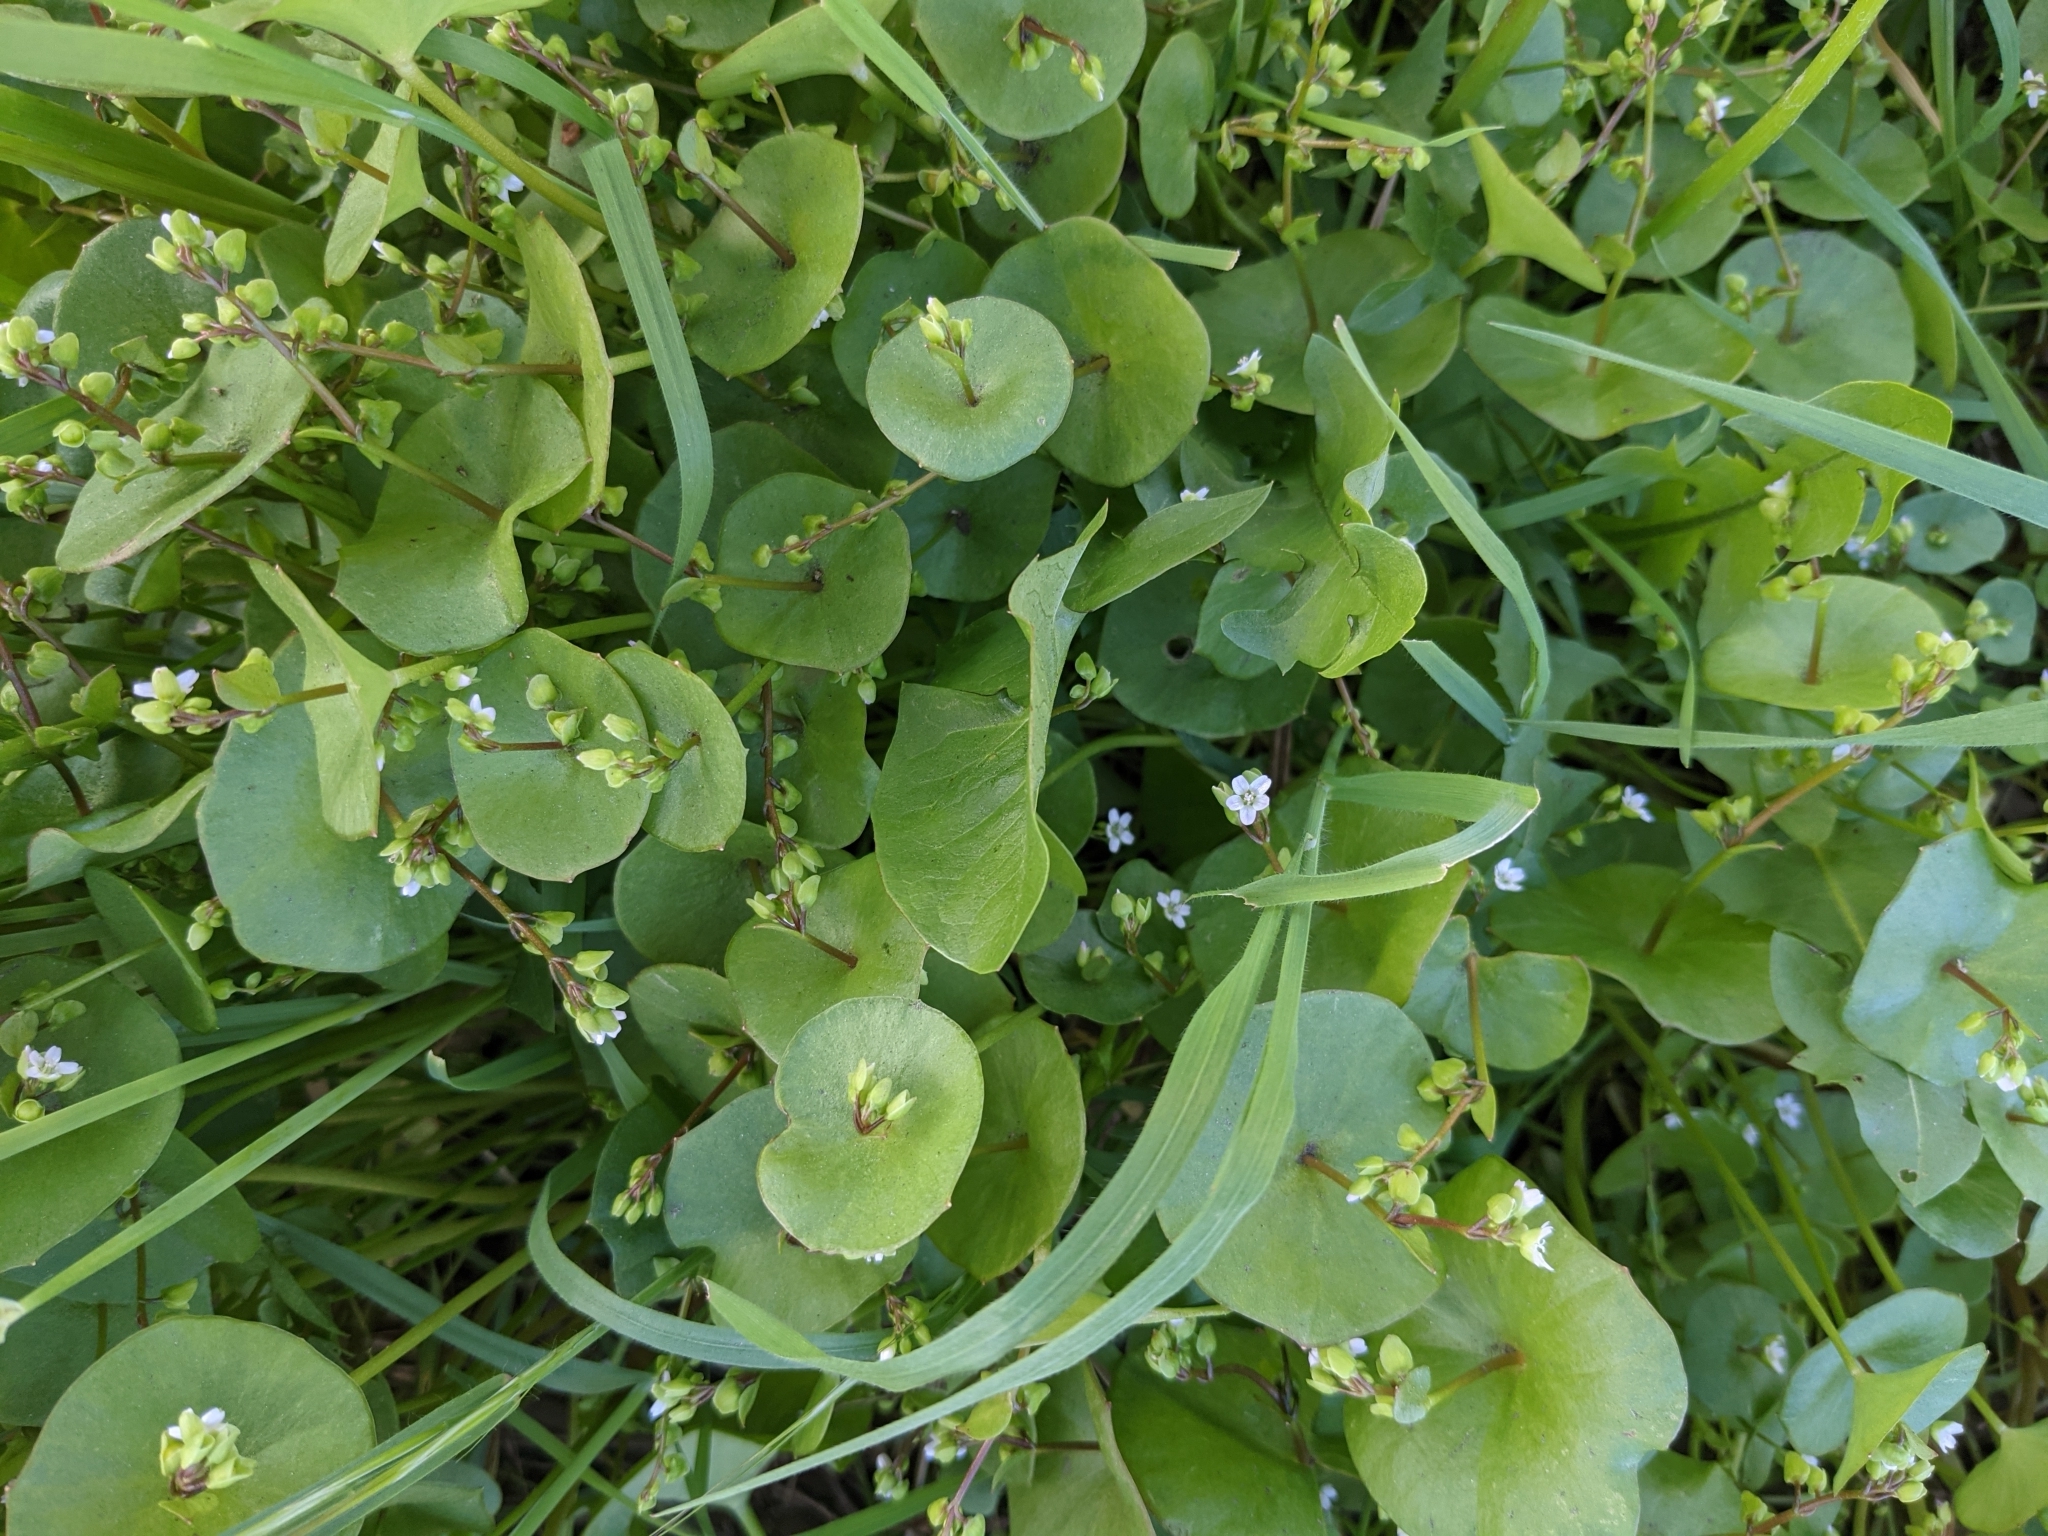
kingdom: Plantae
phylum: Tracheophyta
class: Magnoliopsida
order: Caryophyllales
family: Montiaceae
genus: Claytonia
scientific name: Claytonia perfoliata
